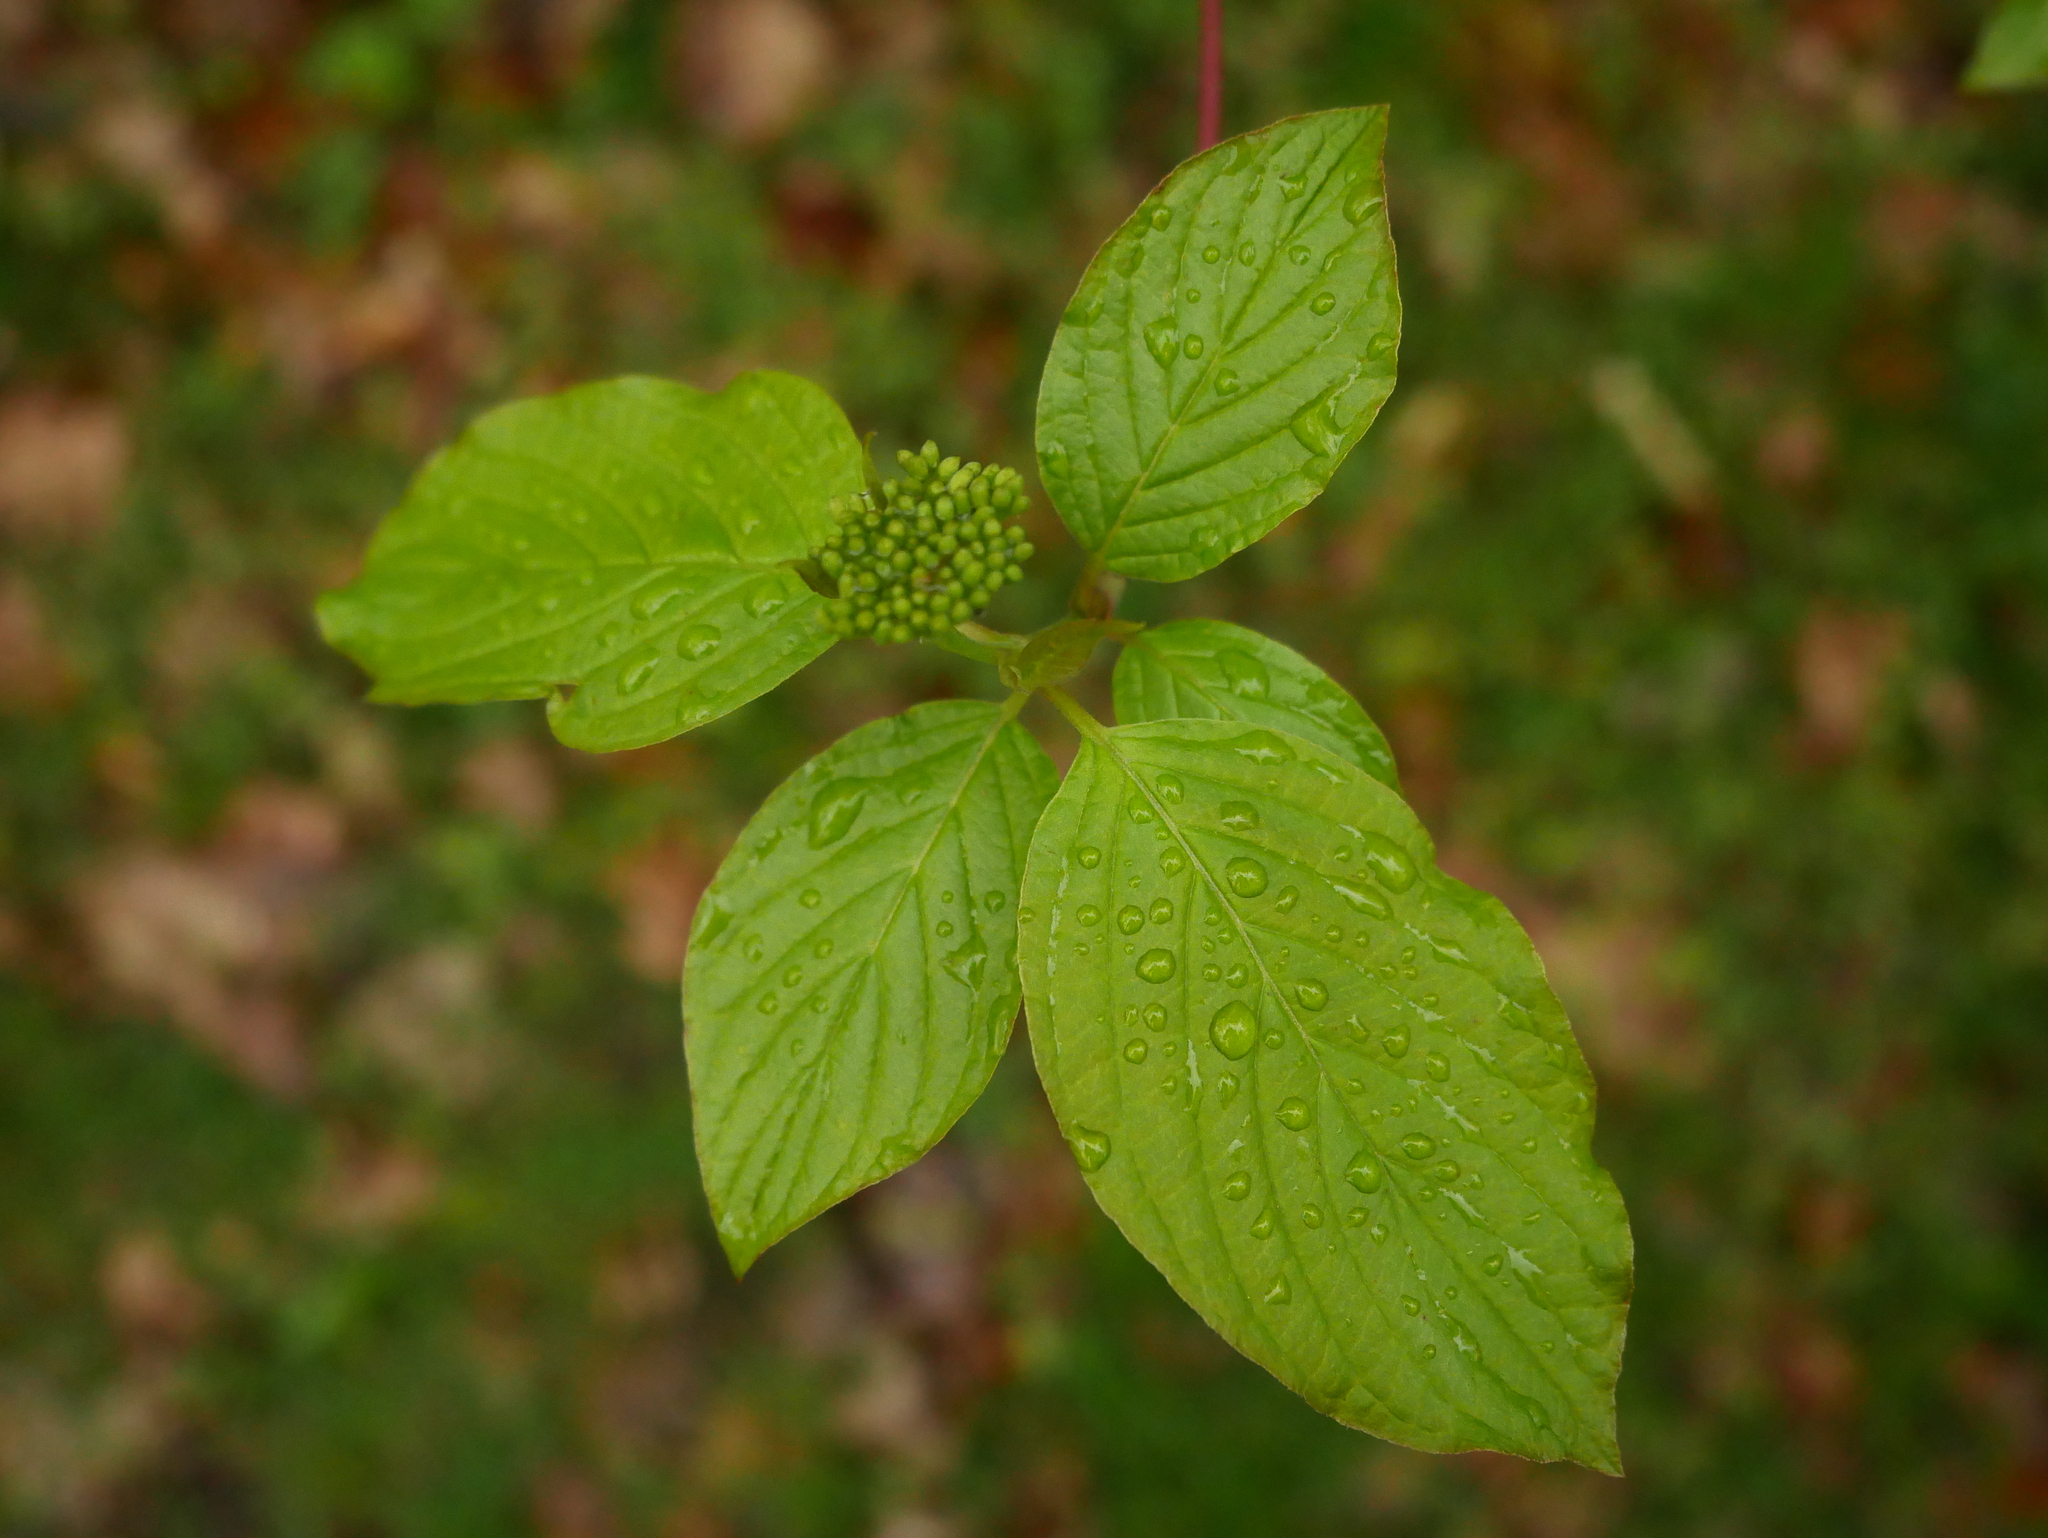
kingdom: Plantae
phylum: Tracheophyta
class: Magnoliopsida
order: Cornales
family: Cornaceae
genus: Cornus
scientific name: Cornus sanguinea
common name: Dogwood
